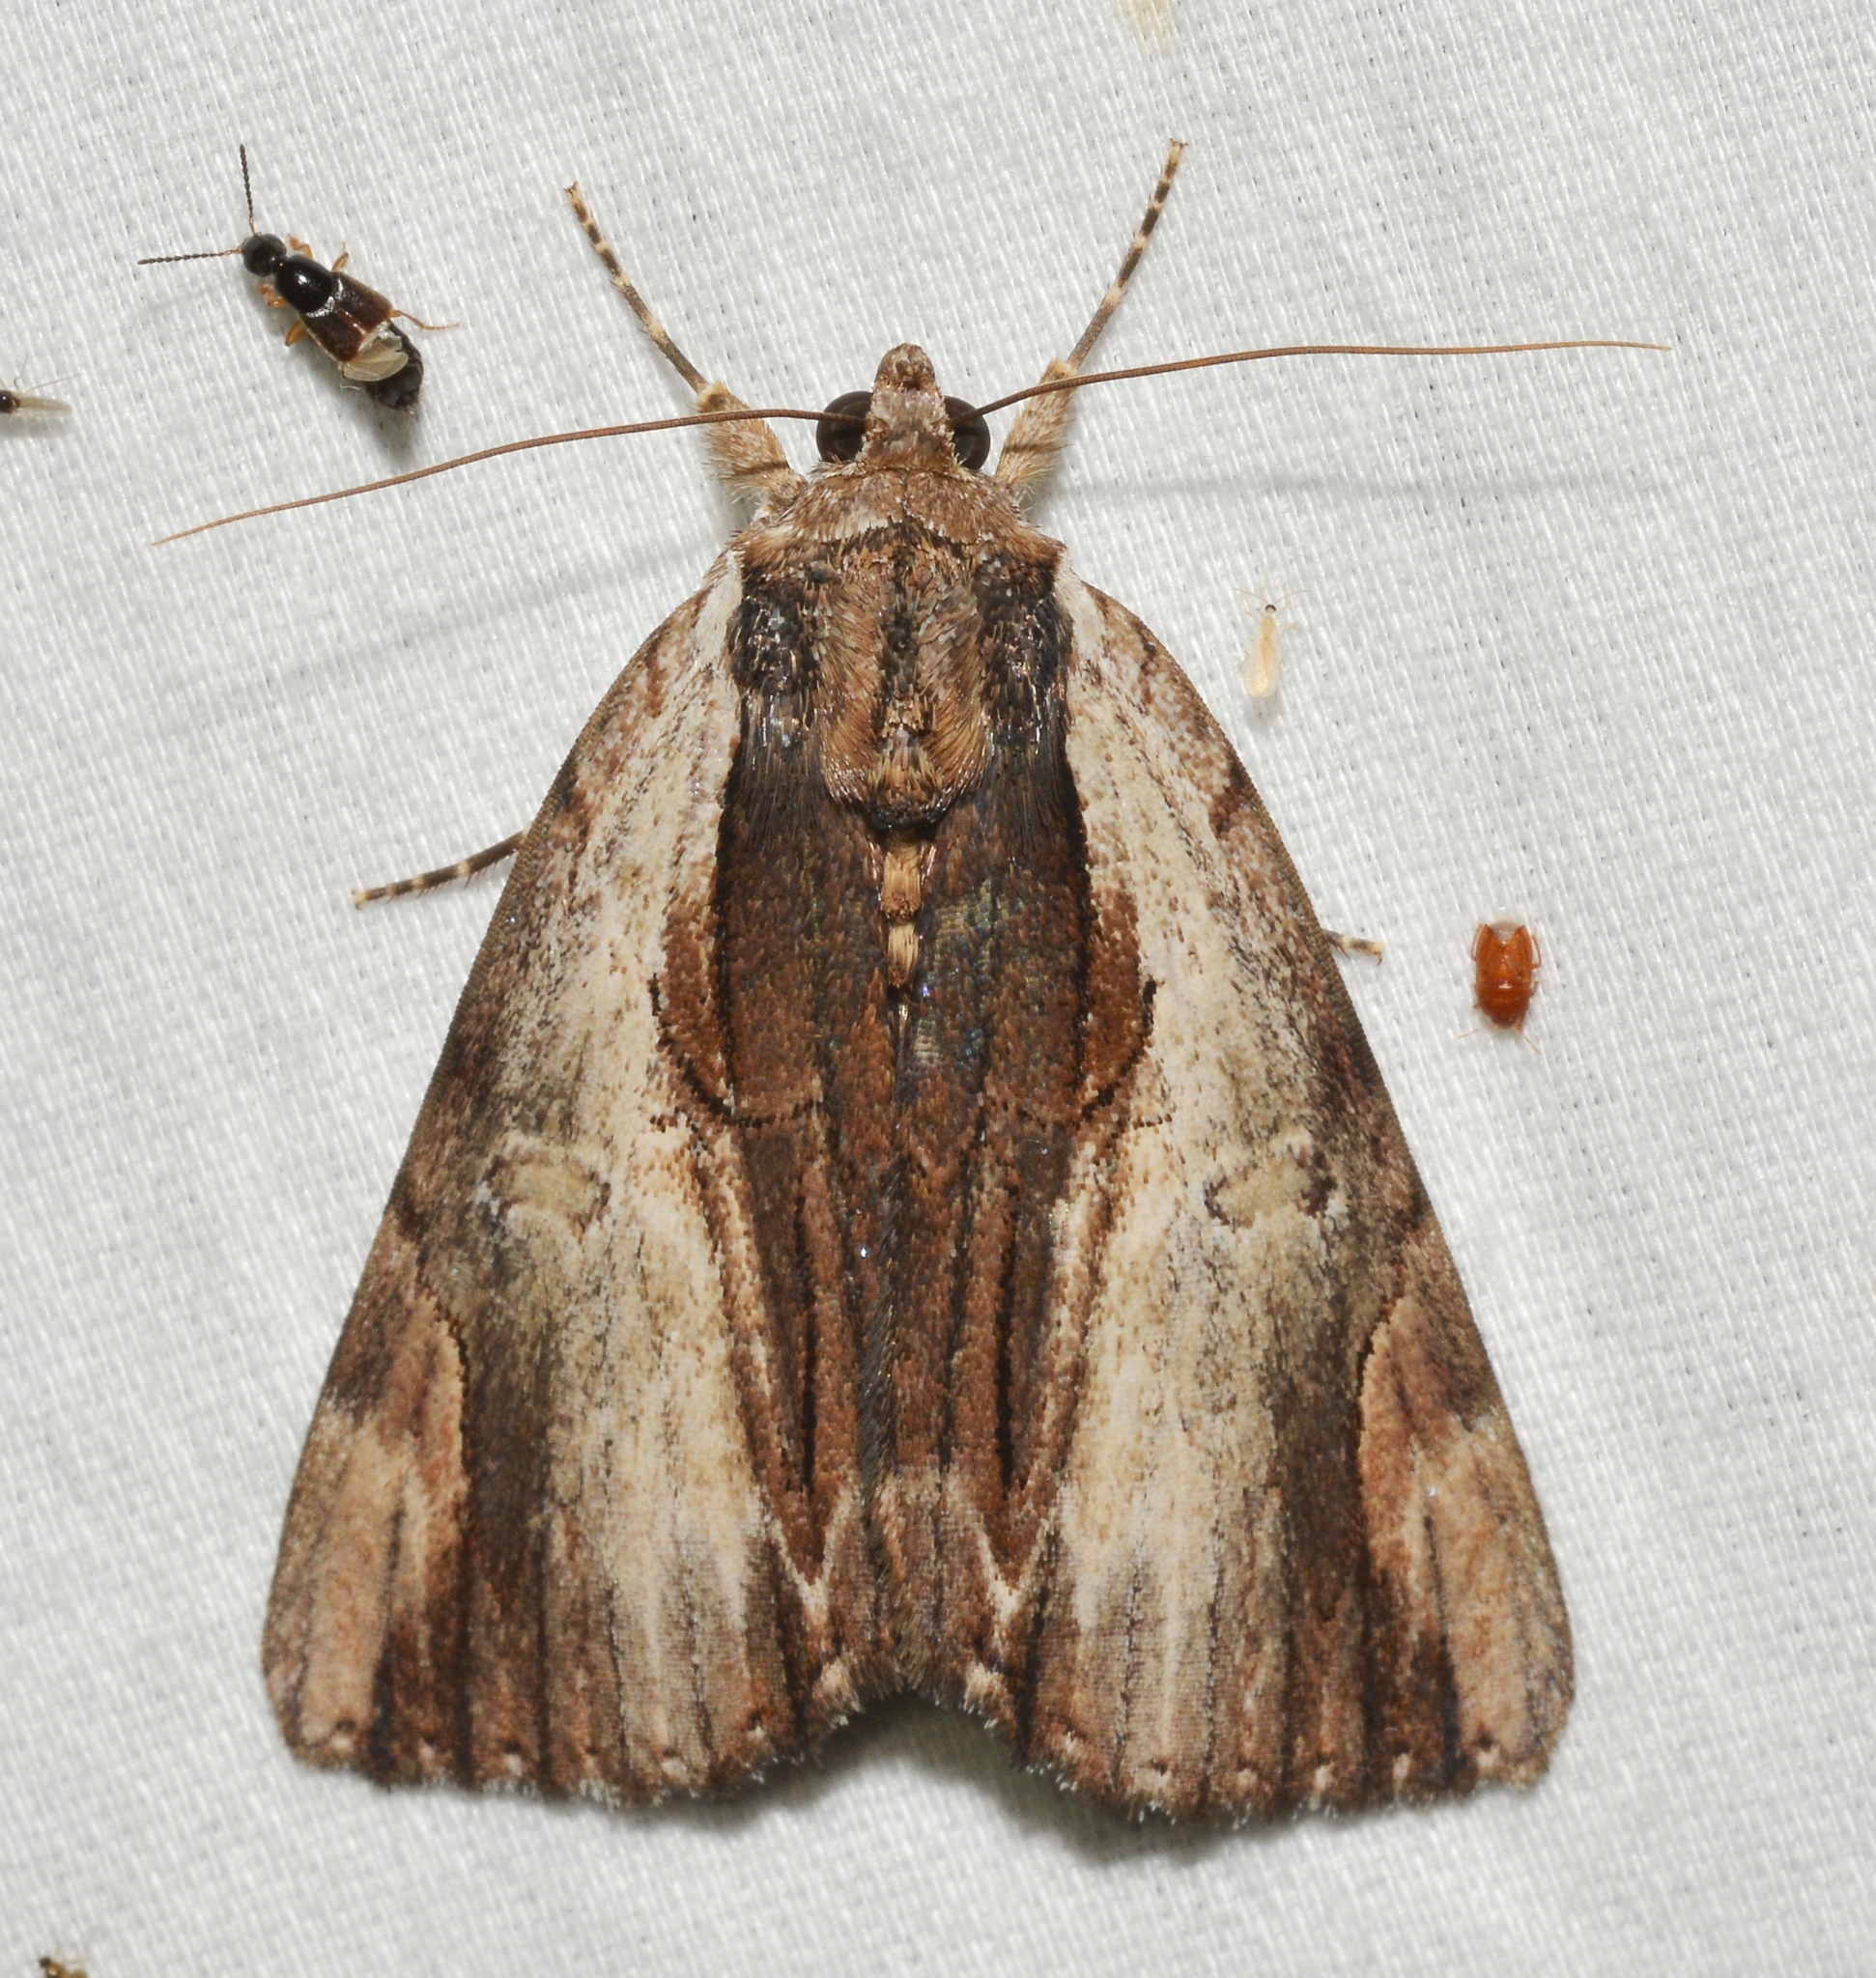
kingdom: Animalia
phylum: Arthropoda
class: Insecta
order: Lepidoptera
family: Erebidae
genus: Catocala
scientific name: Catocala ultronia
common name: Ultronia underwing
